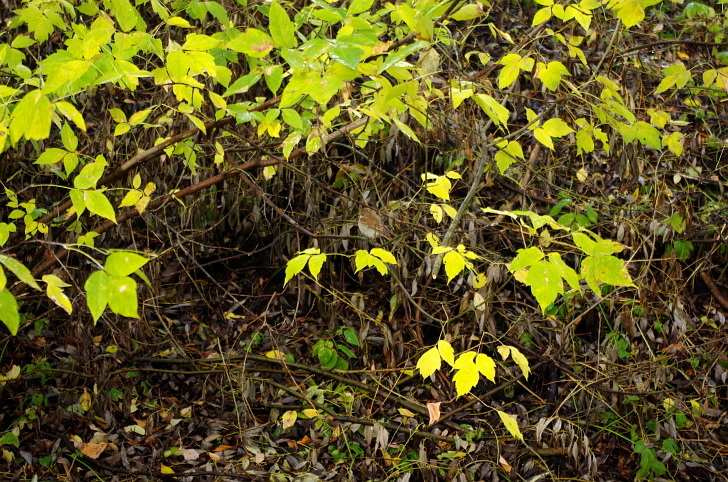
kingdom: Plantae
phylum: Tracheophyta
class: Magnoliopsida
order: Sapindales
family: Sapindaceae
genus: Acer
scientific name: Acer negundo
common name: Ashleaf maple
